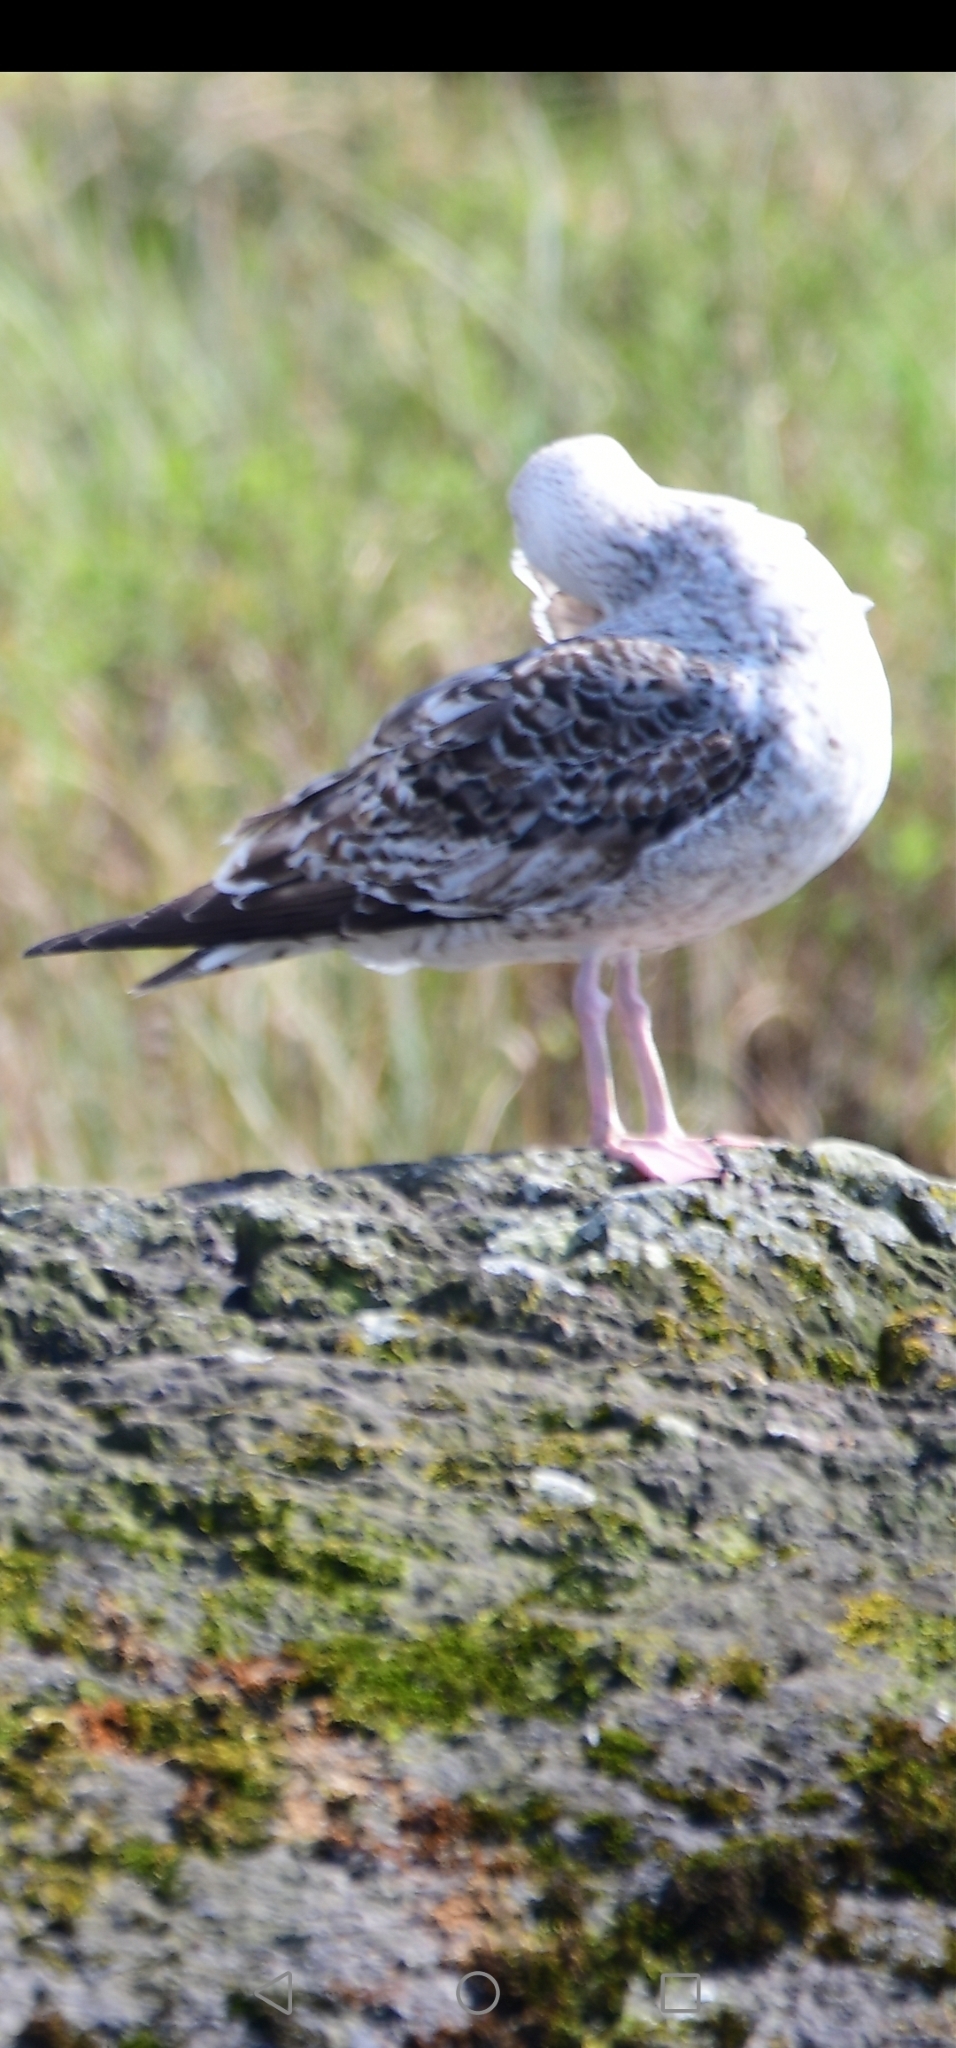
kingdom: Animalia
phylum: Chordata
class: Aves
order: Charadriiformes
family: Laridae
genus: Larus
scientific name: Larus marinus
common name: Great black-backed gull
